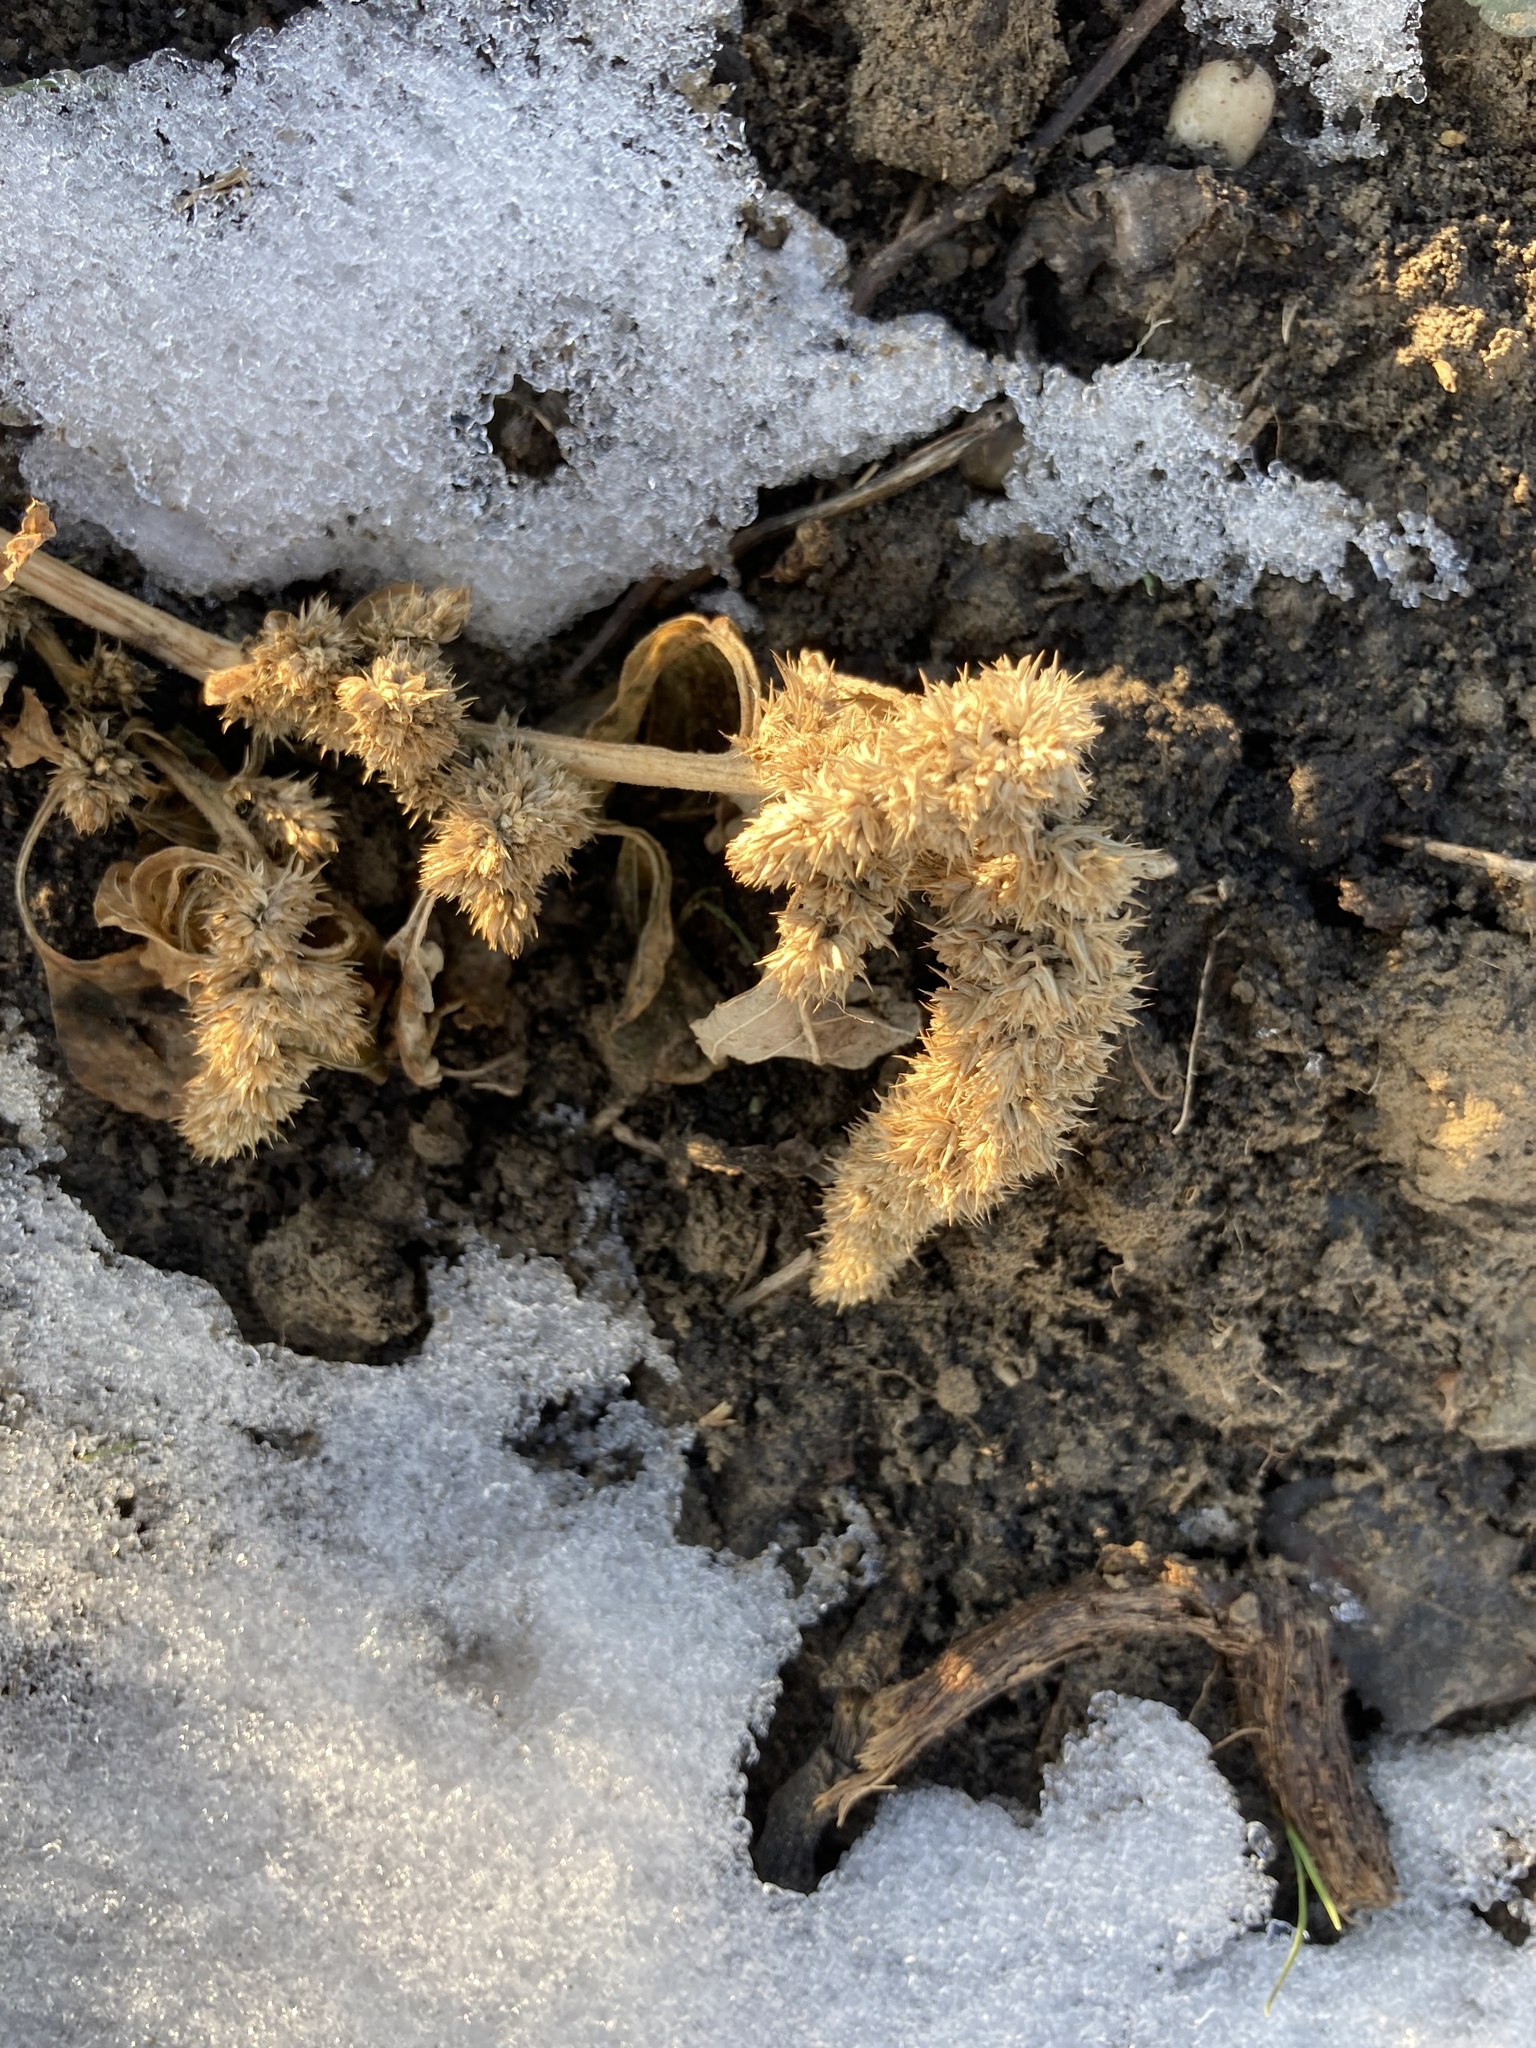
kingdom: Plantae
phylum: Tracheophyta
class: Magnoliopsida
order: Caryophyllales
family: Amaranthaceae
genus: Amaranthus
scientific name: Amaranthus retroflexus
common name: Redroot amaranth
